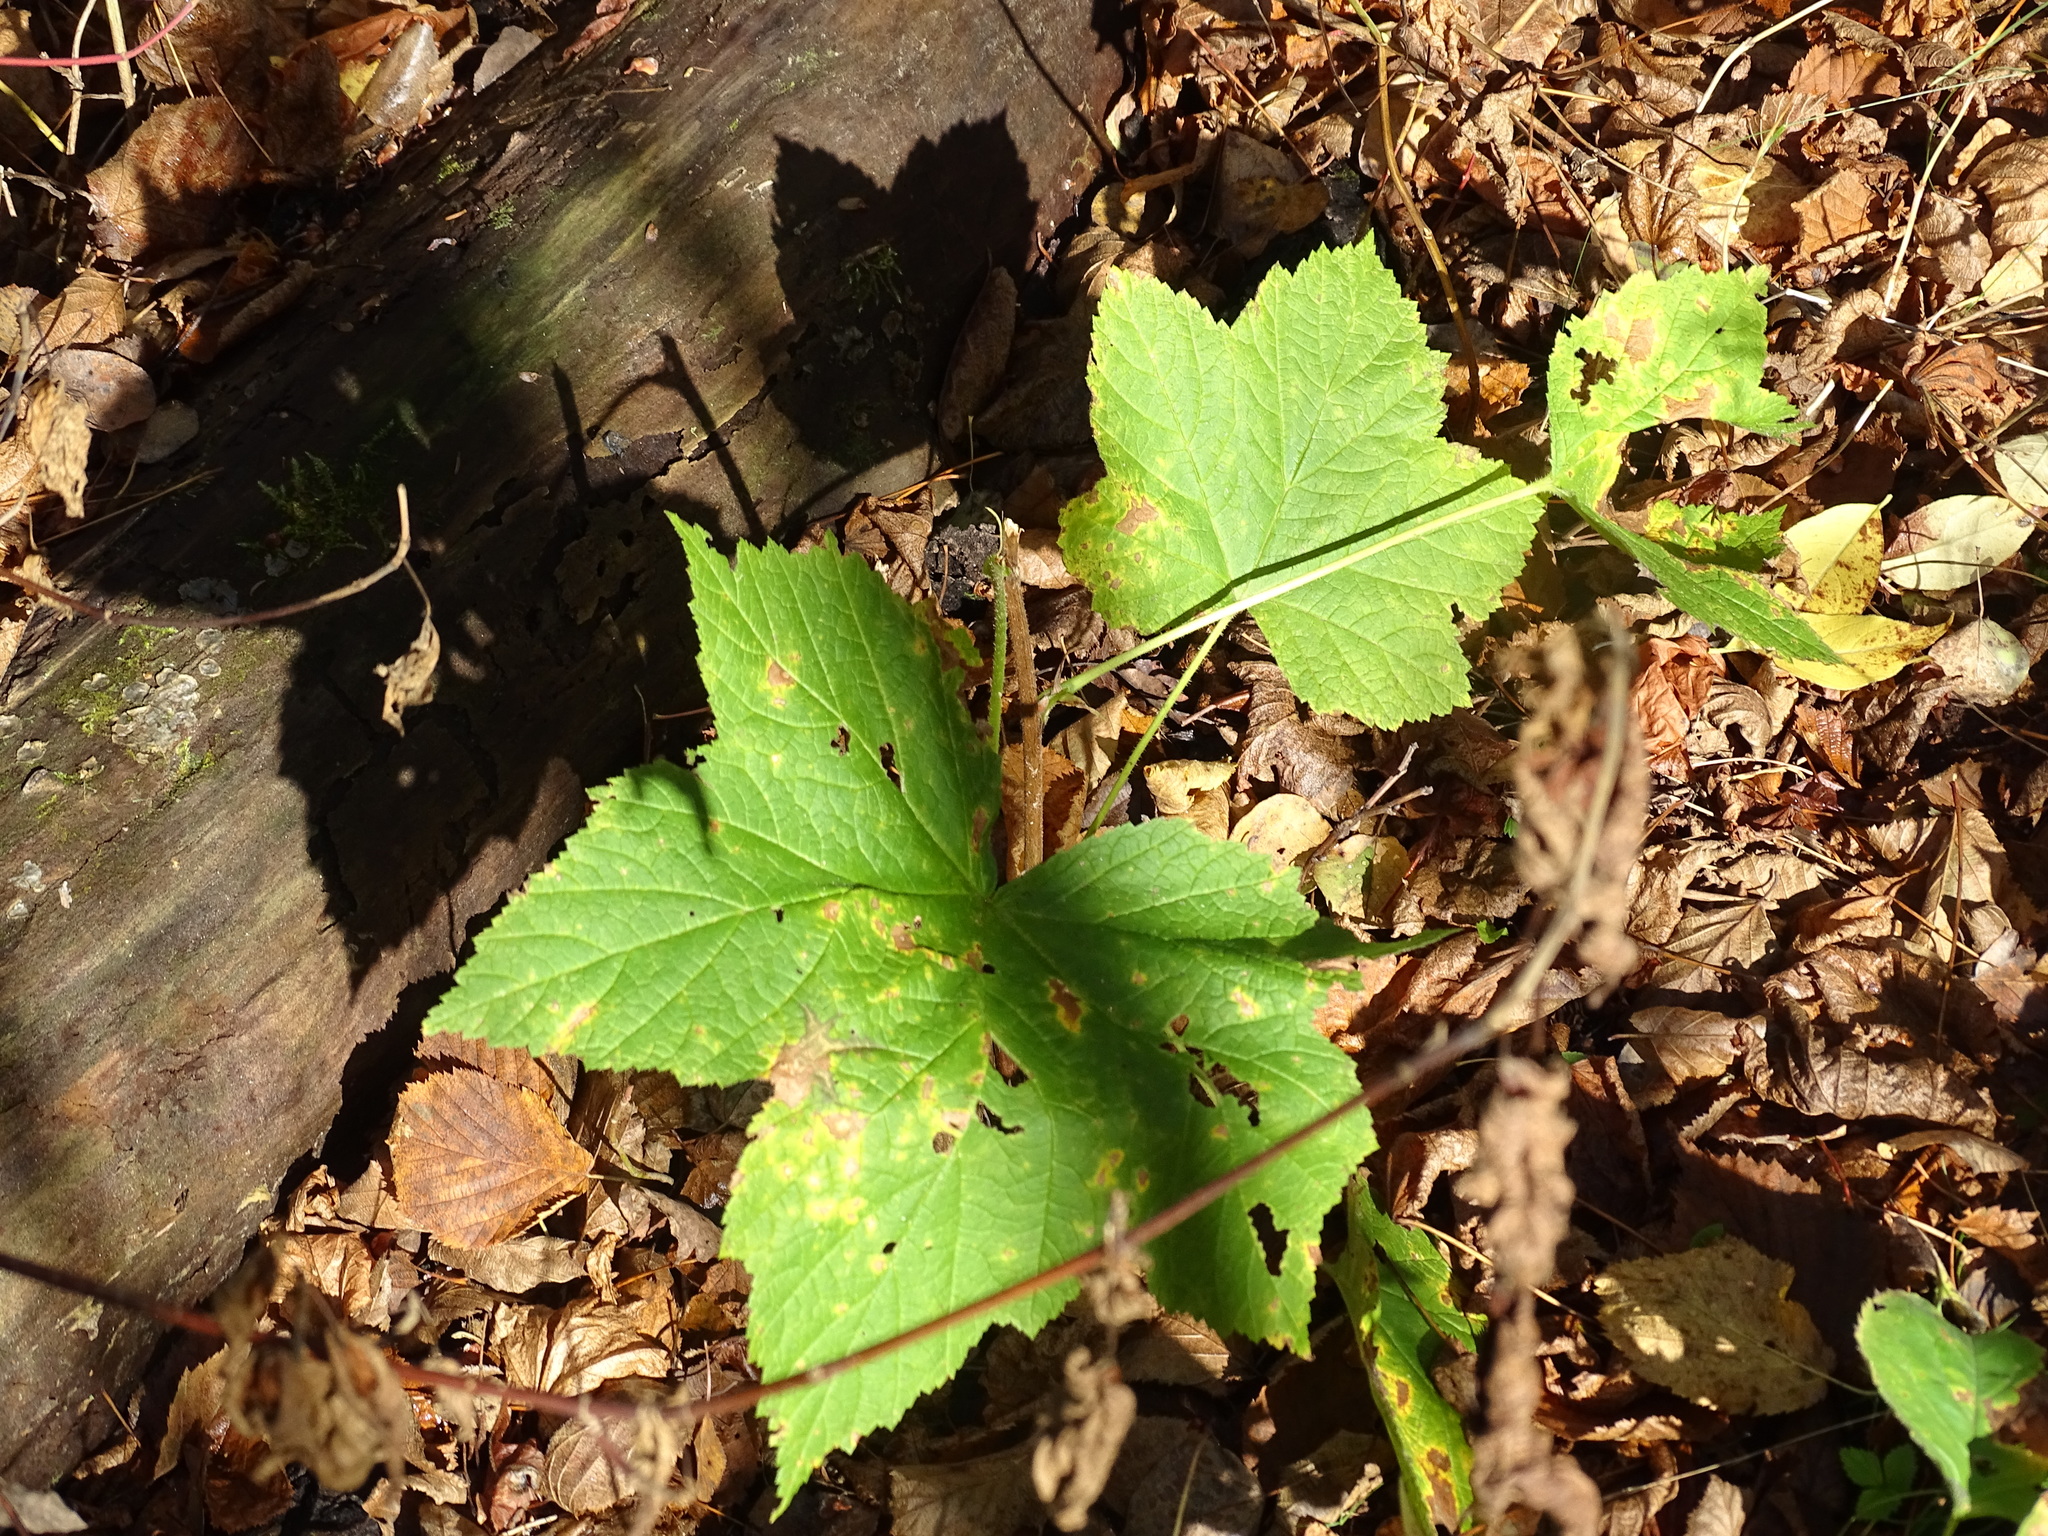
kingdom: Plantae
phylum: Tracheophyta
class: Magnoliopsida
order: Rosales
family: Rosaceae
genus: Rubus
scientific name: Rubus parviflorus
